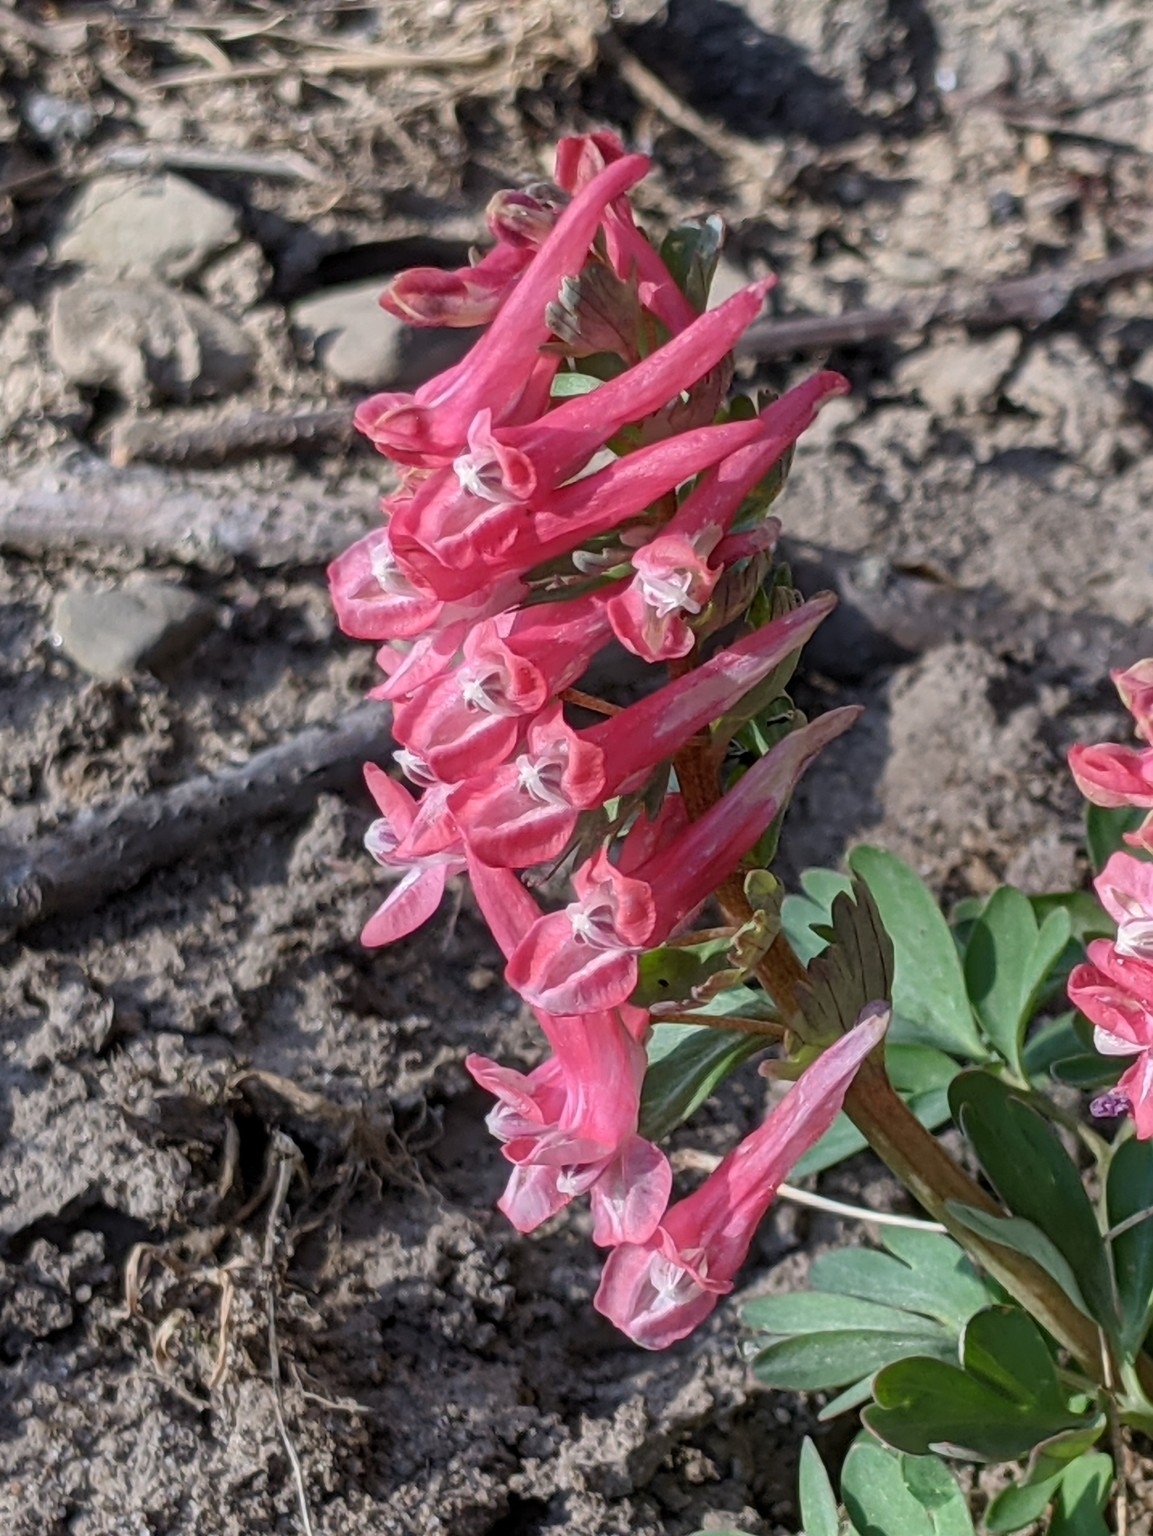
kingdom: Plantae
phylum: Tracheophyta
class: Magnoliopsida
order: Ranunculales
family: Papaveraceae
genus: Corydalis
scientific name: Corydalis solida
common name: Bird-in-a-bush
